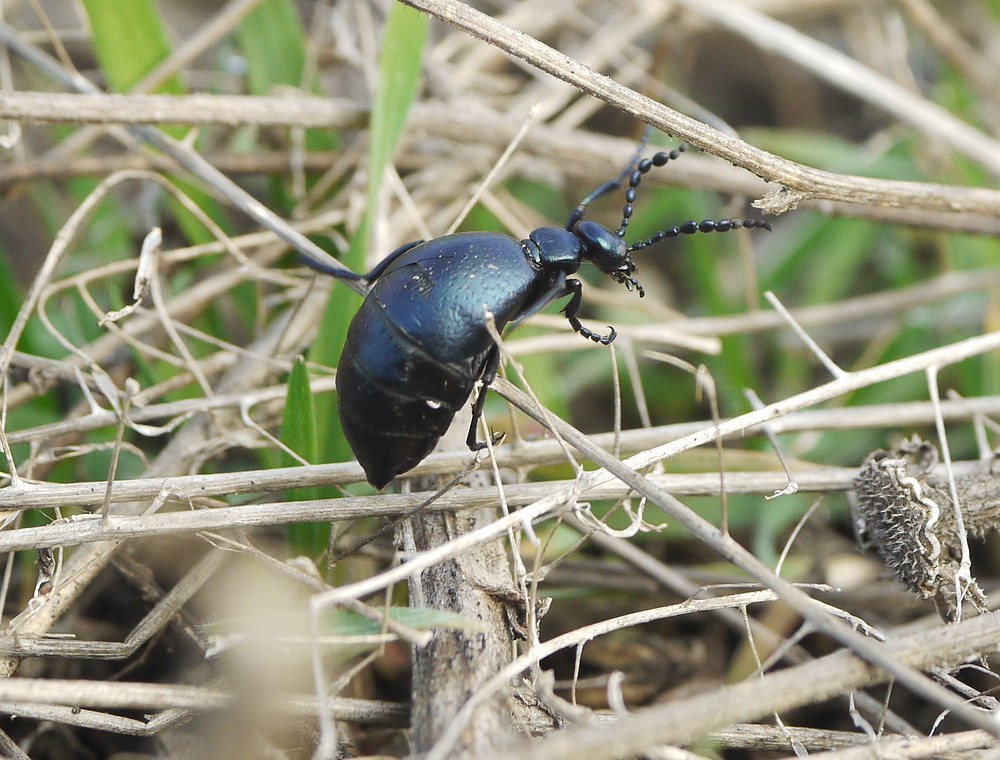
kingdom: Animalia
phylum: Arthropoda
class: Insecta
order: Coleoptera
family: Meloidae
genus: Meloe
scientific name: Meloe autumnalis
